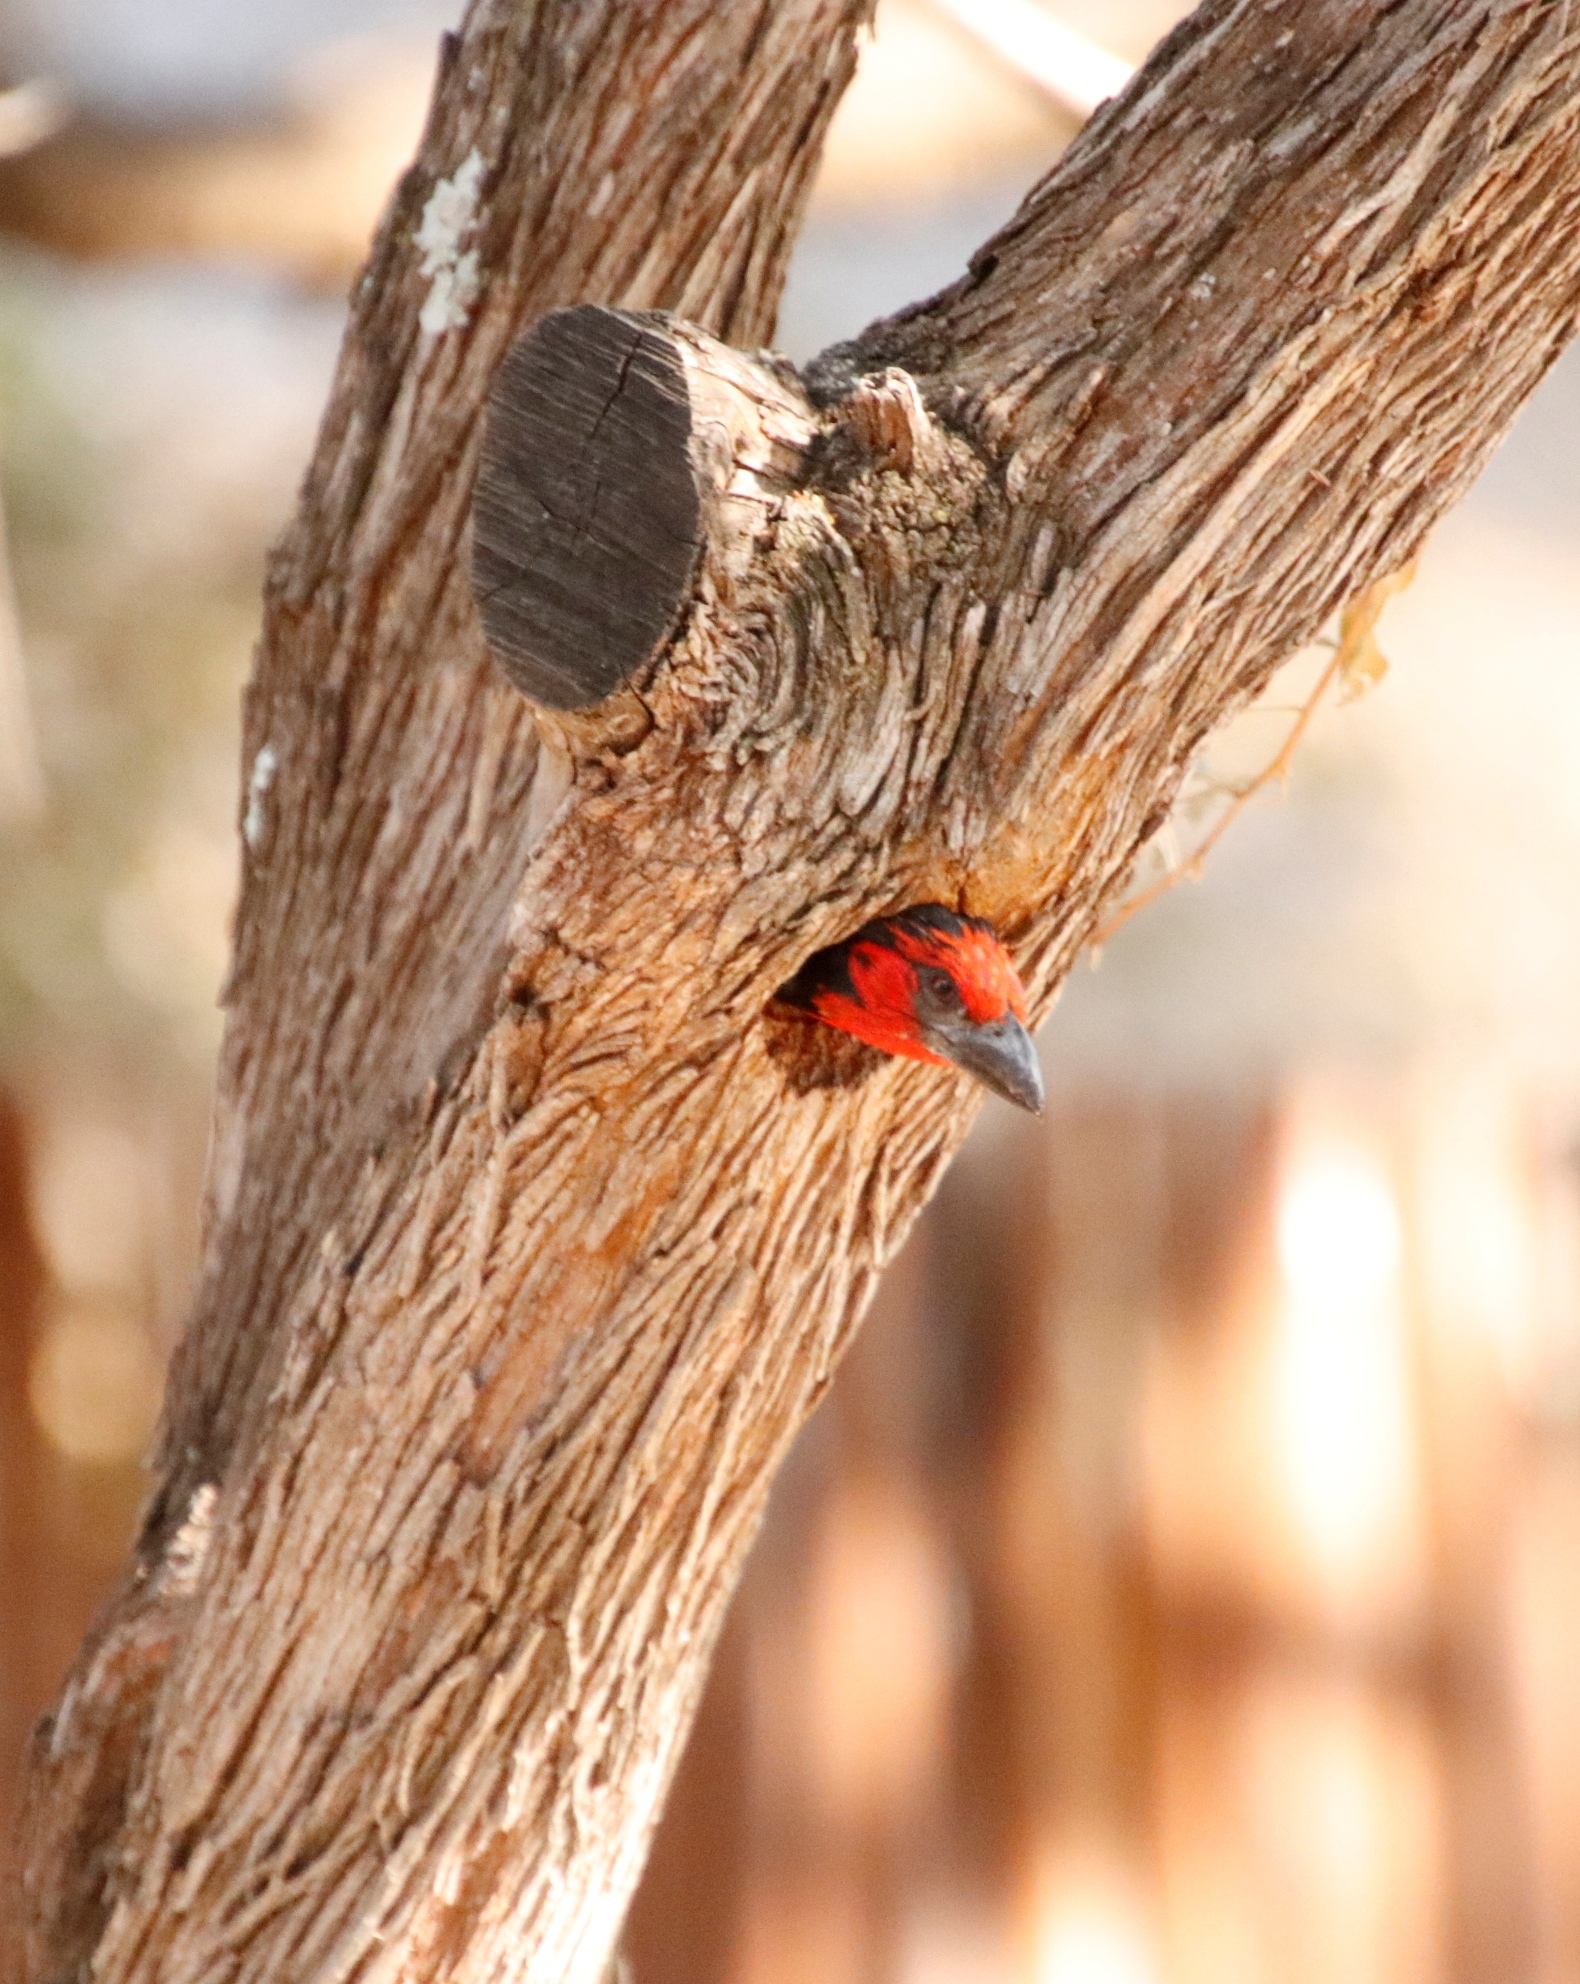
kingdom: Animalia
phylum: Chordata
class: Aves
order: Piciformes
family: Lybiidae
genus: Lybius
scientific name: Lybius torquatus
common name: Black-collared barbet
